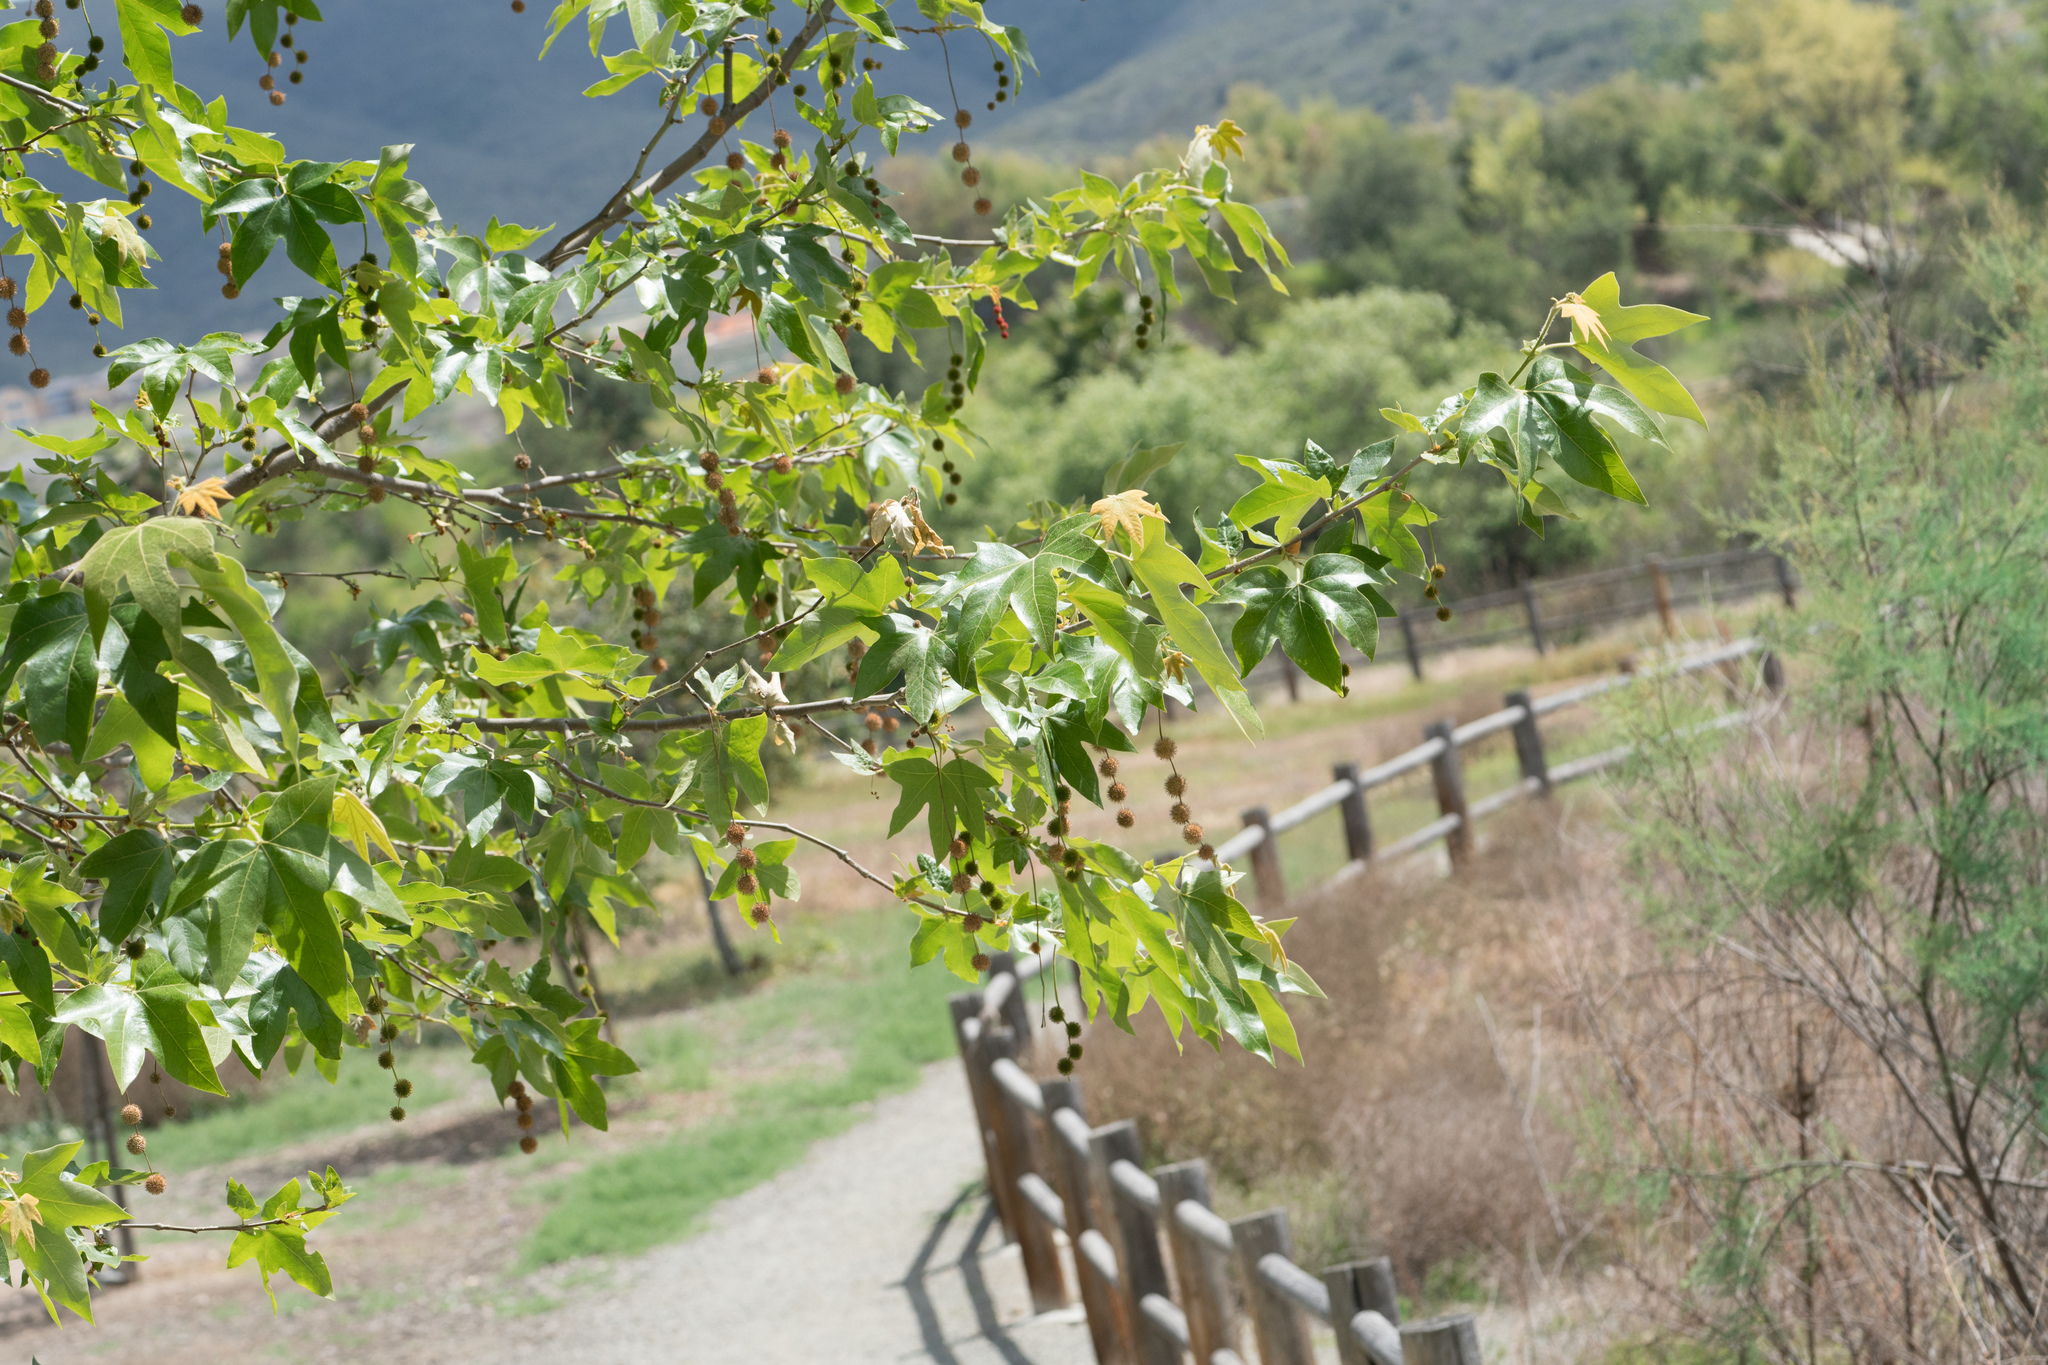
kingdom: Plantae
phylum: Tracheophyta
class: Magnoliopsida
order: Proteales
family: Platanaceae
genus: Platanus
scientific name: Platanus racemosa
